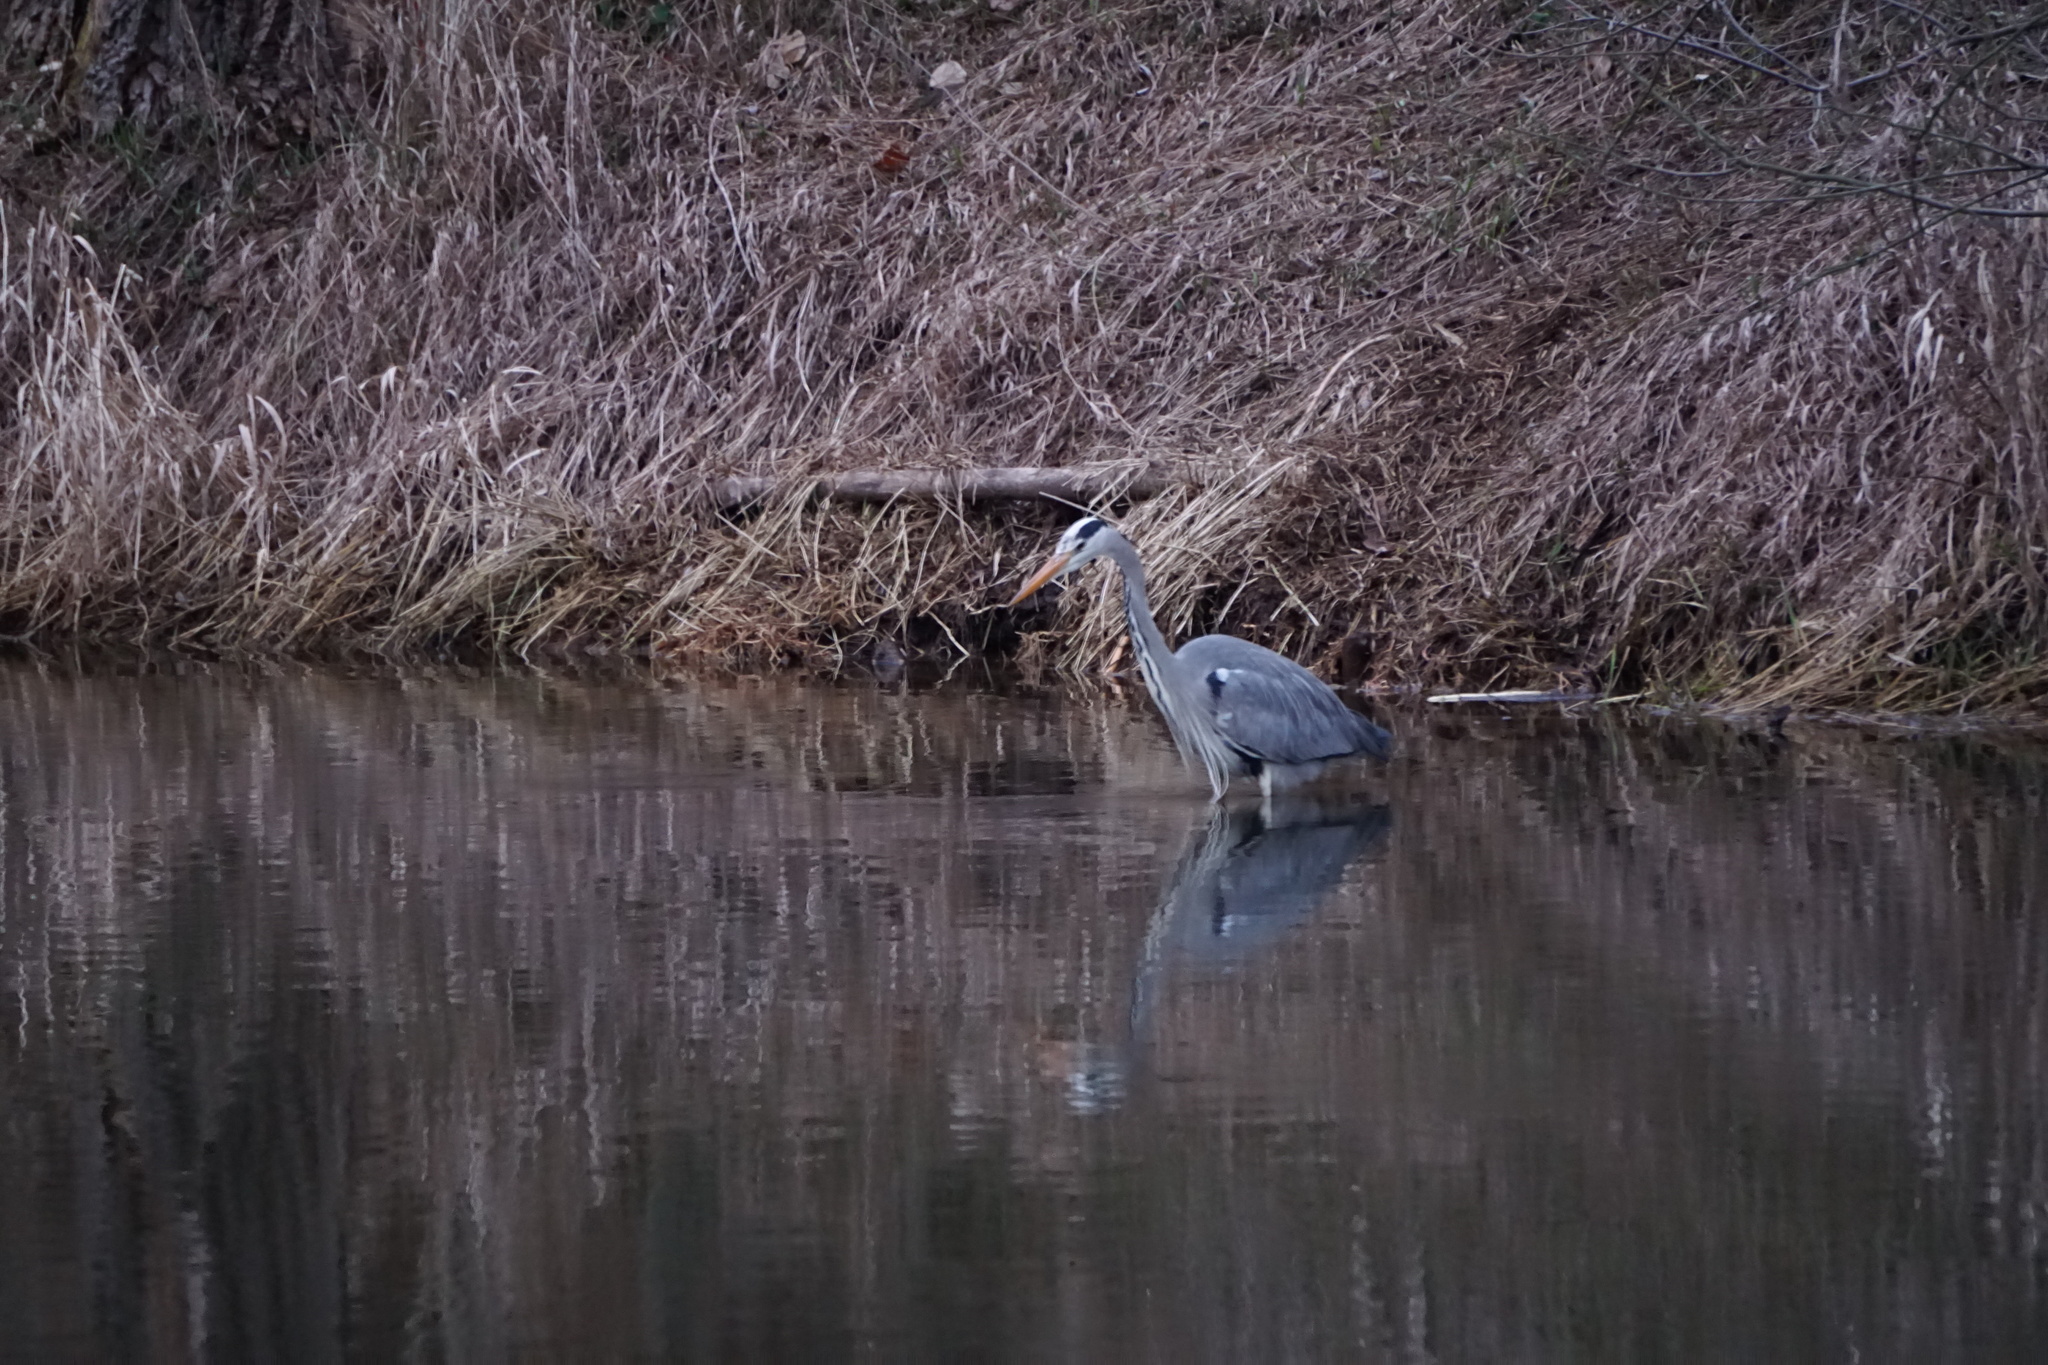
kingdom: Animalia
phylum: Chordata
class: Aves
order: Pelecaniformes
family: Ardeidae
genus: Ardea
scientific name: Ardea cinerea
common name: Grey heron
